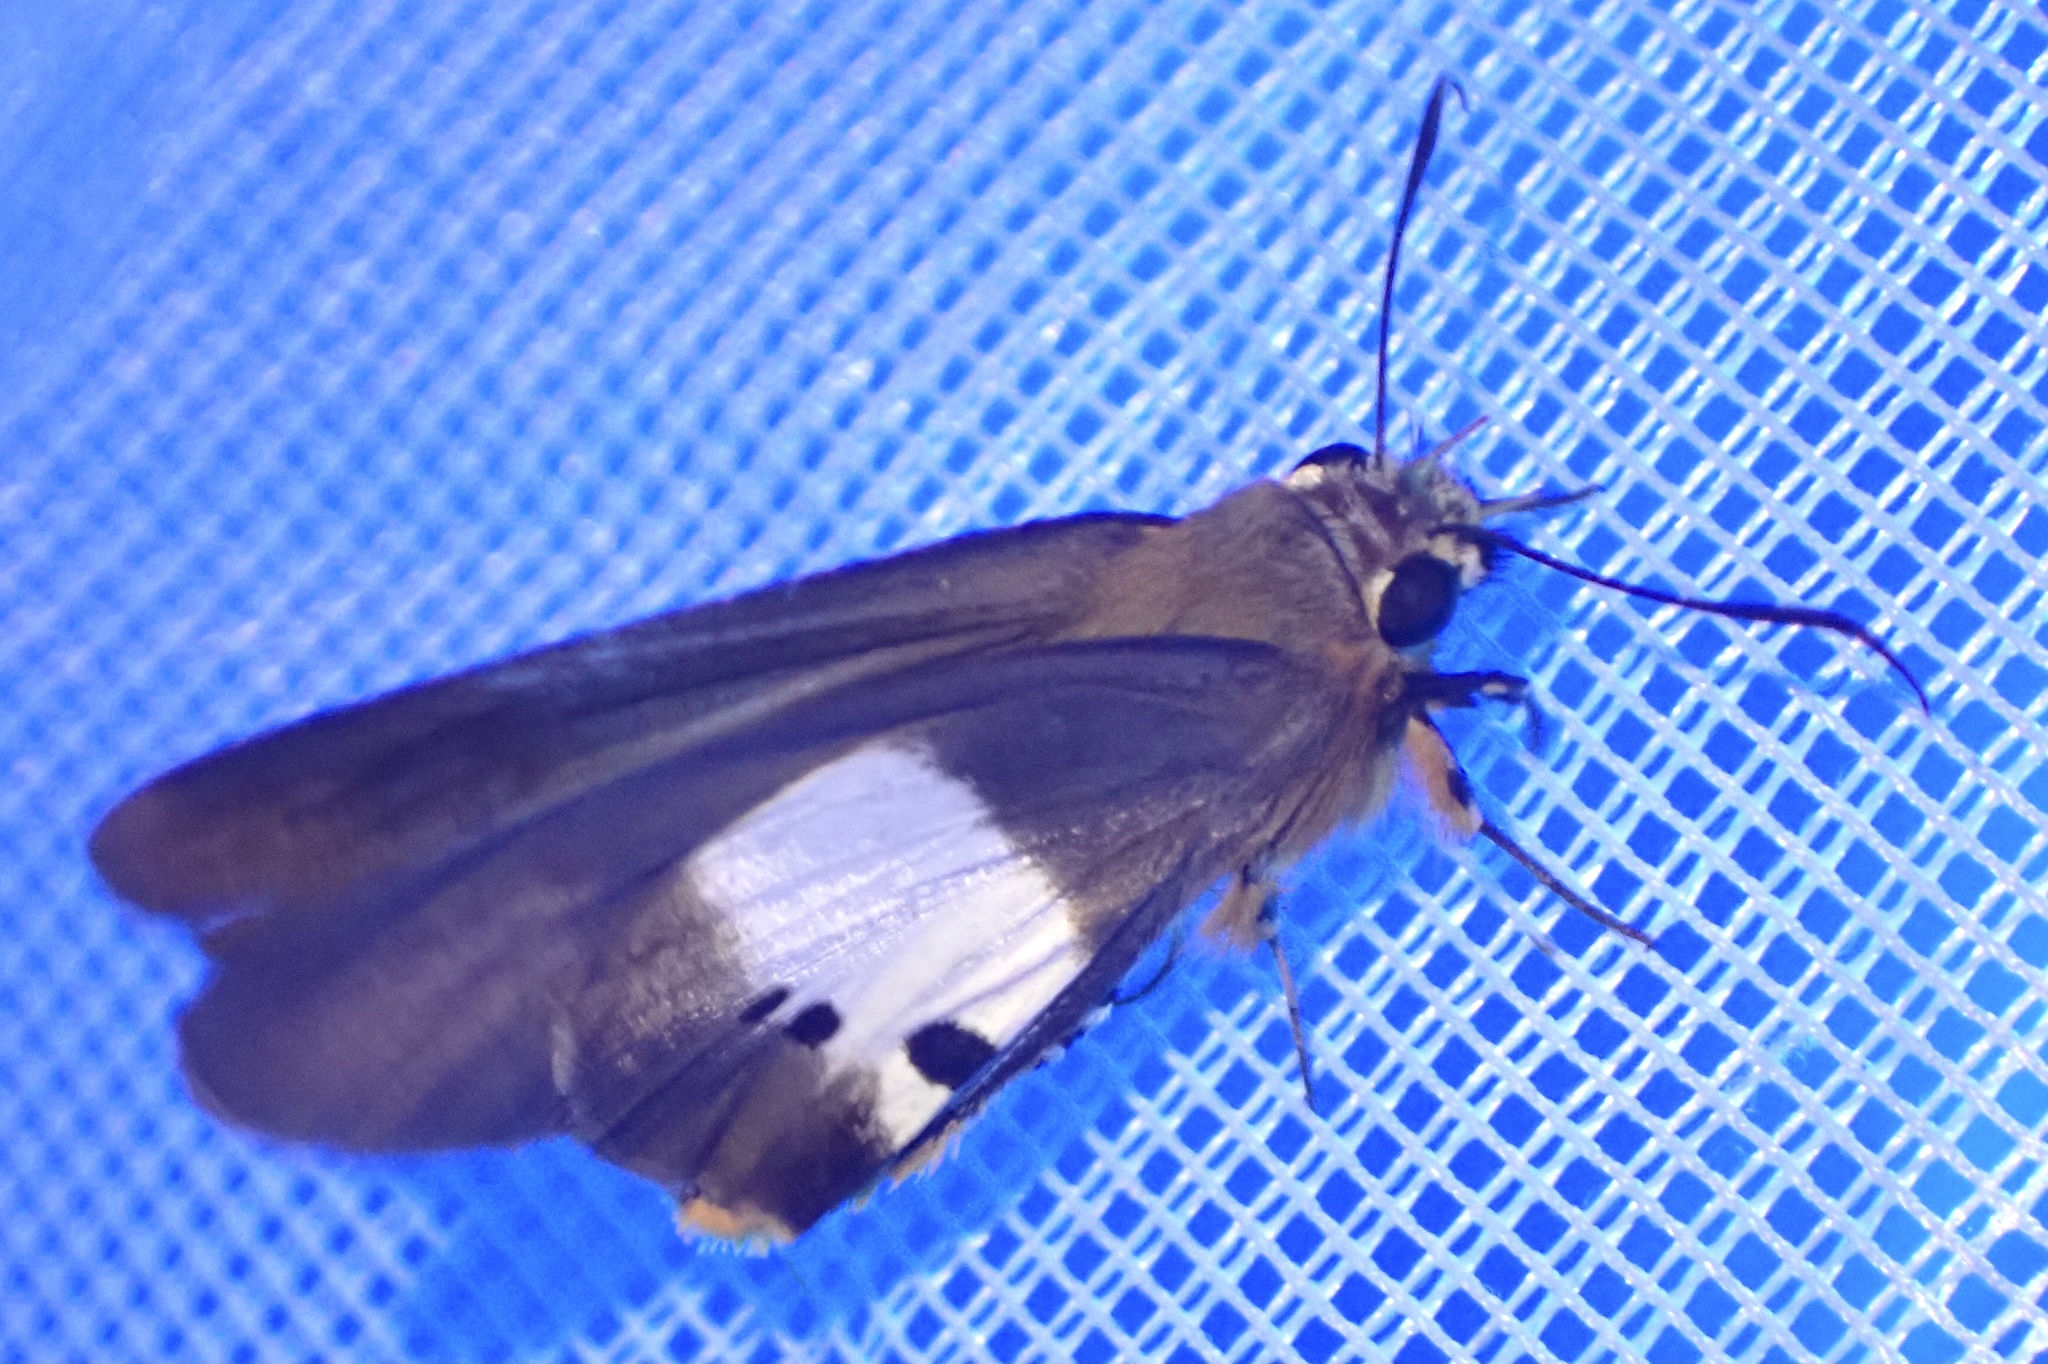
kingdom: Animalia
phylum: Arthropoda
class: Insecta
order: Lepidoptera
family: Hesperiidae
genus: Coeliades
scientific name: Coeliades pisistratus
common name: Two-pip policeman
